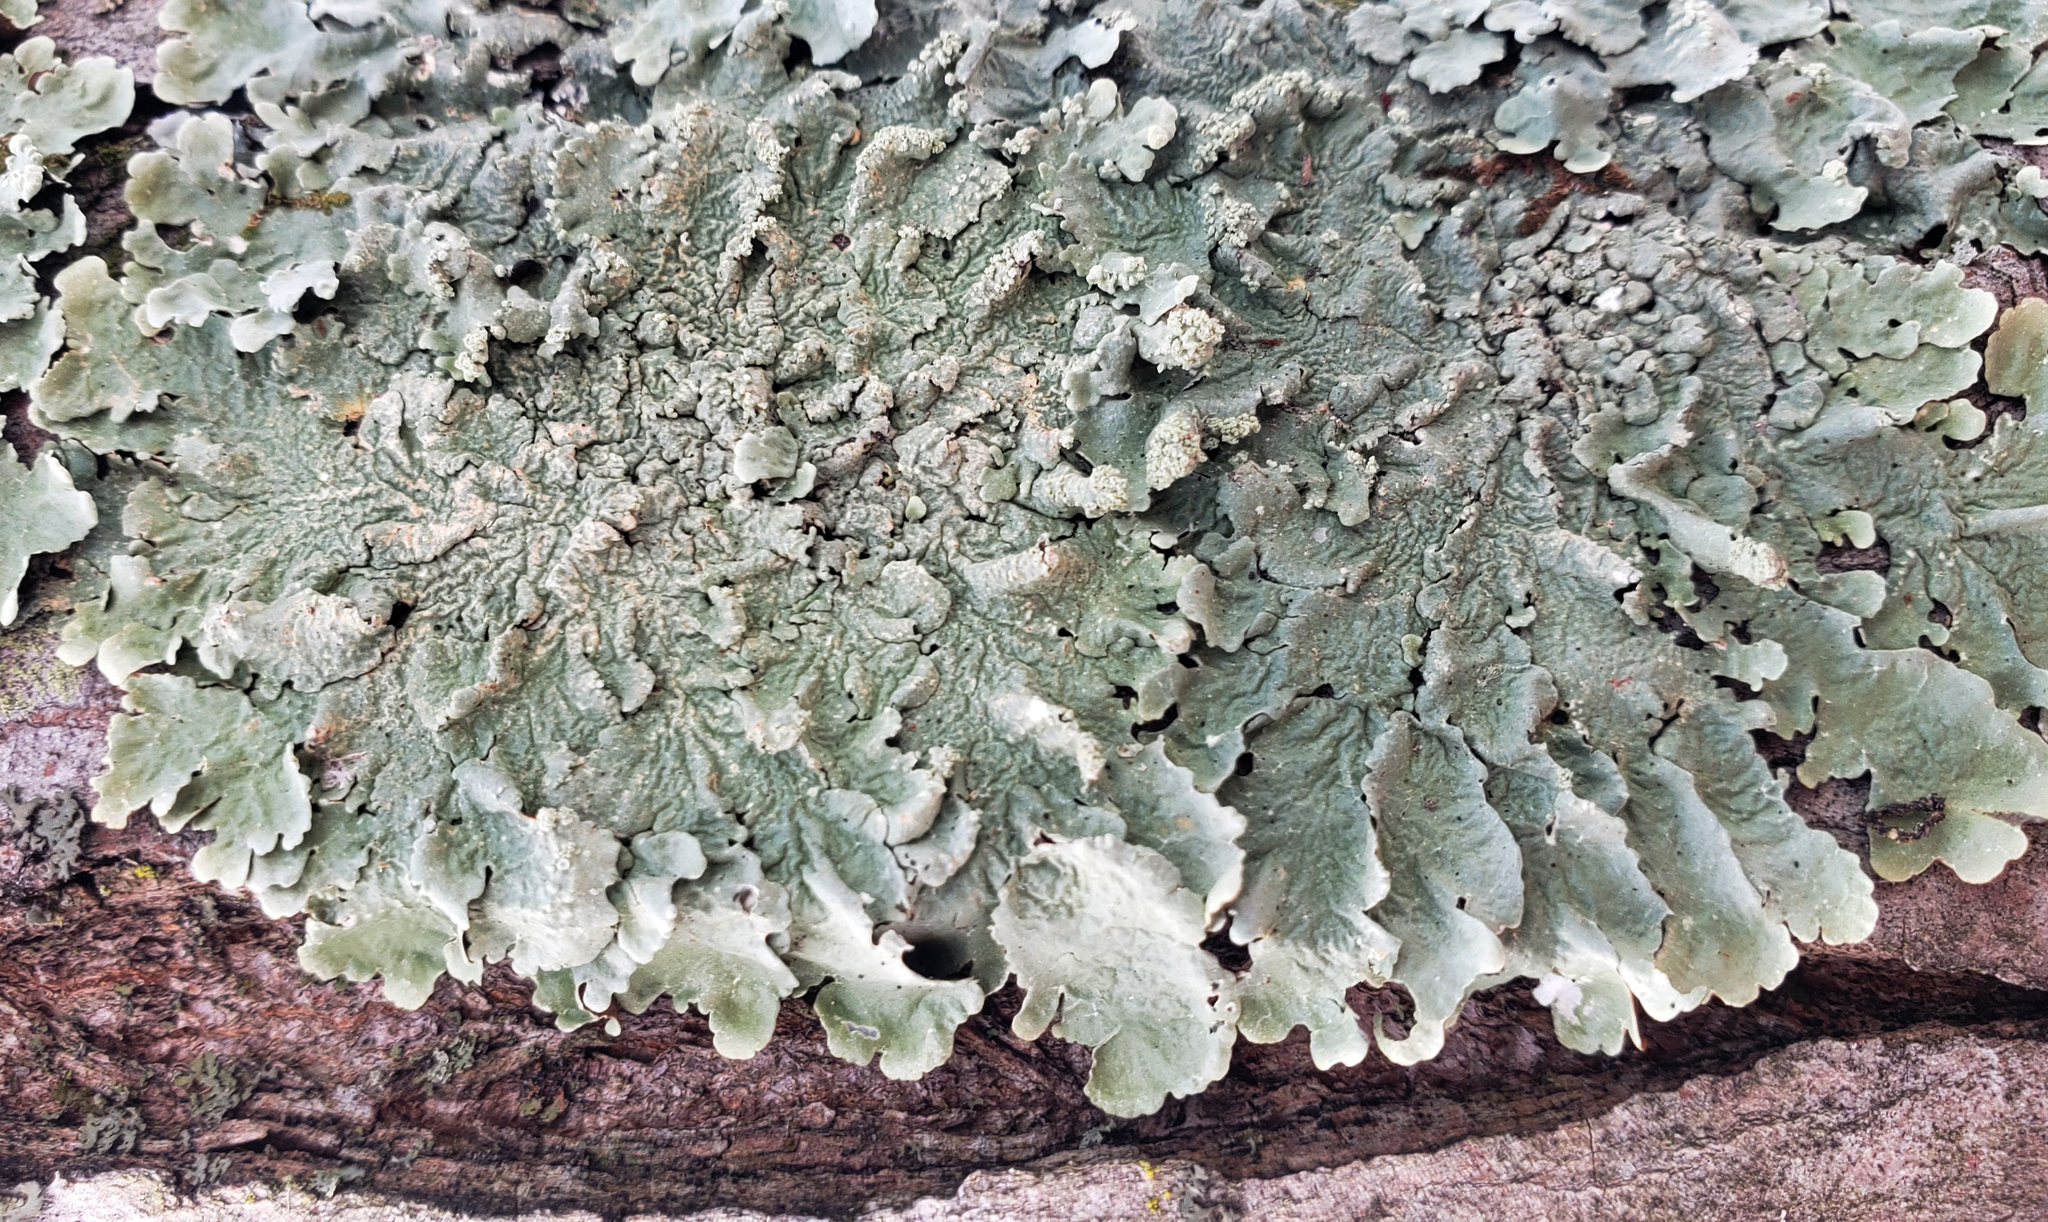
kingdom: Fungi
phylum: Ascomycota
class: Lecanoromycetes
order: Lecanorales
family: Parmeliaceae
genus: Flavoparmelia
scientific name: Flavoparmelia caperata
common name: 40-mile per hour lichen
